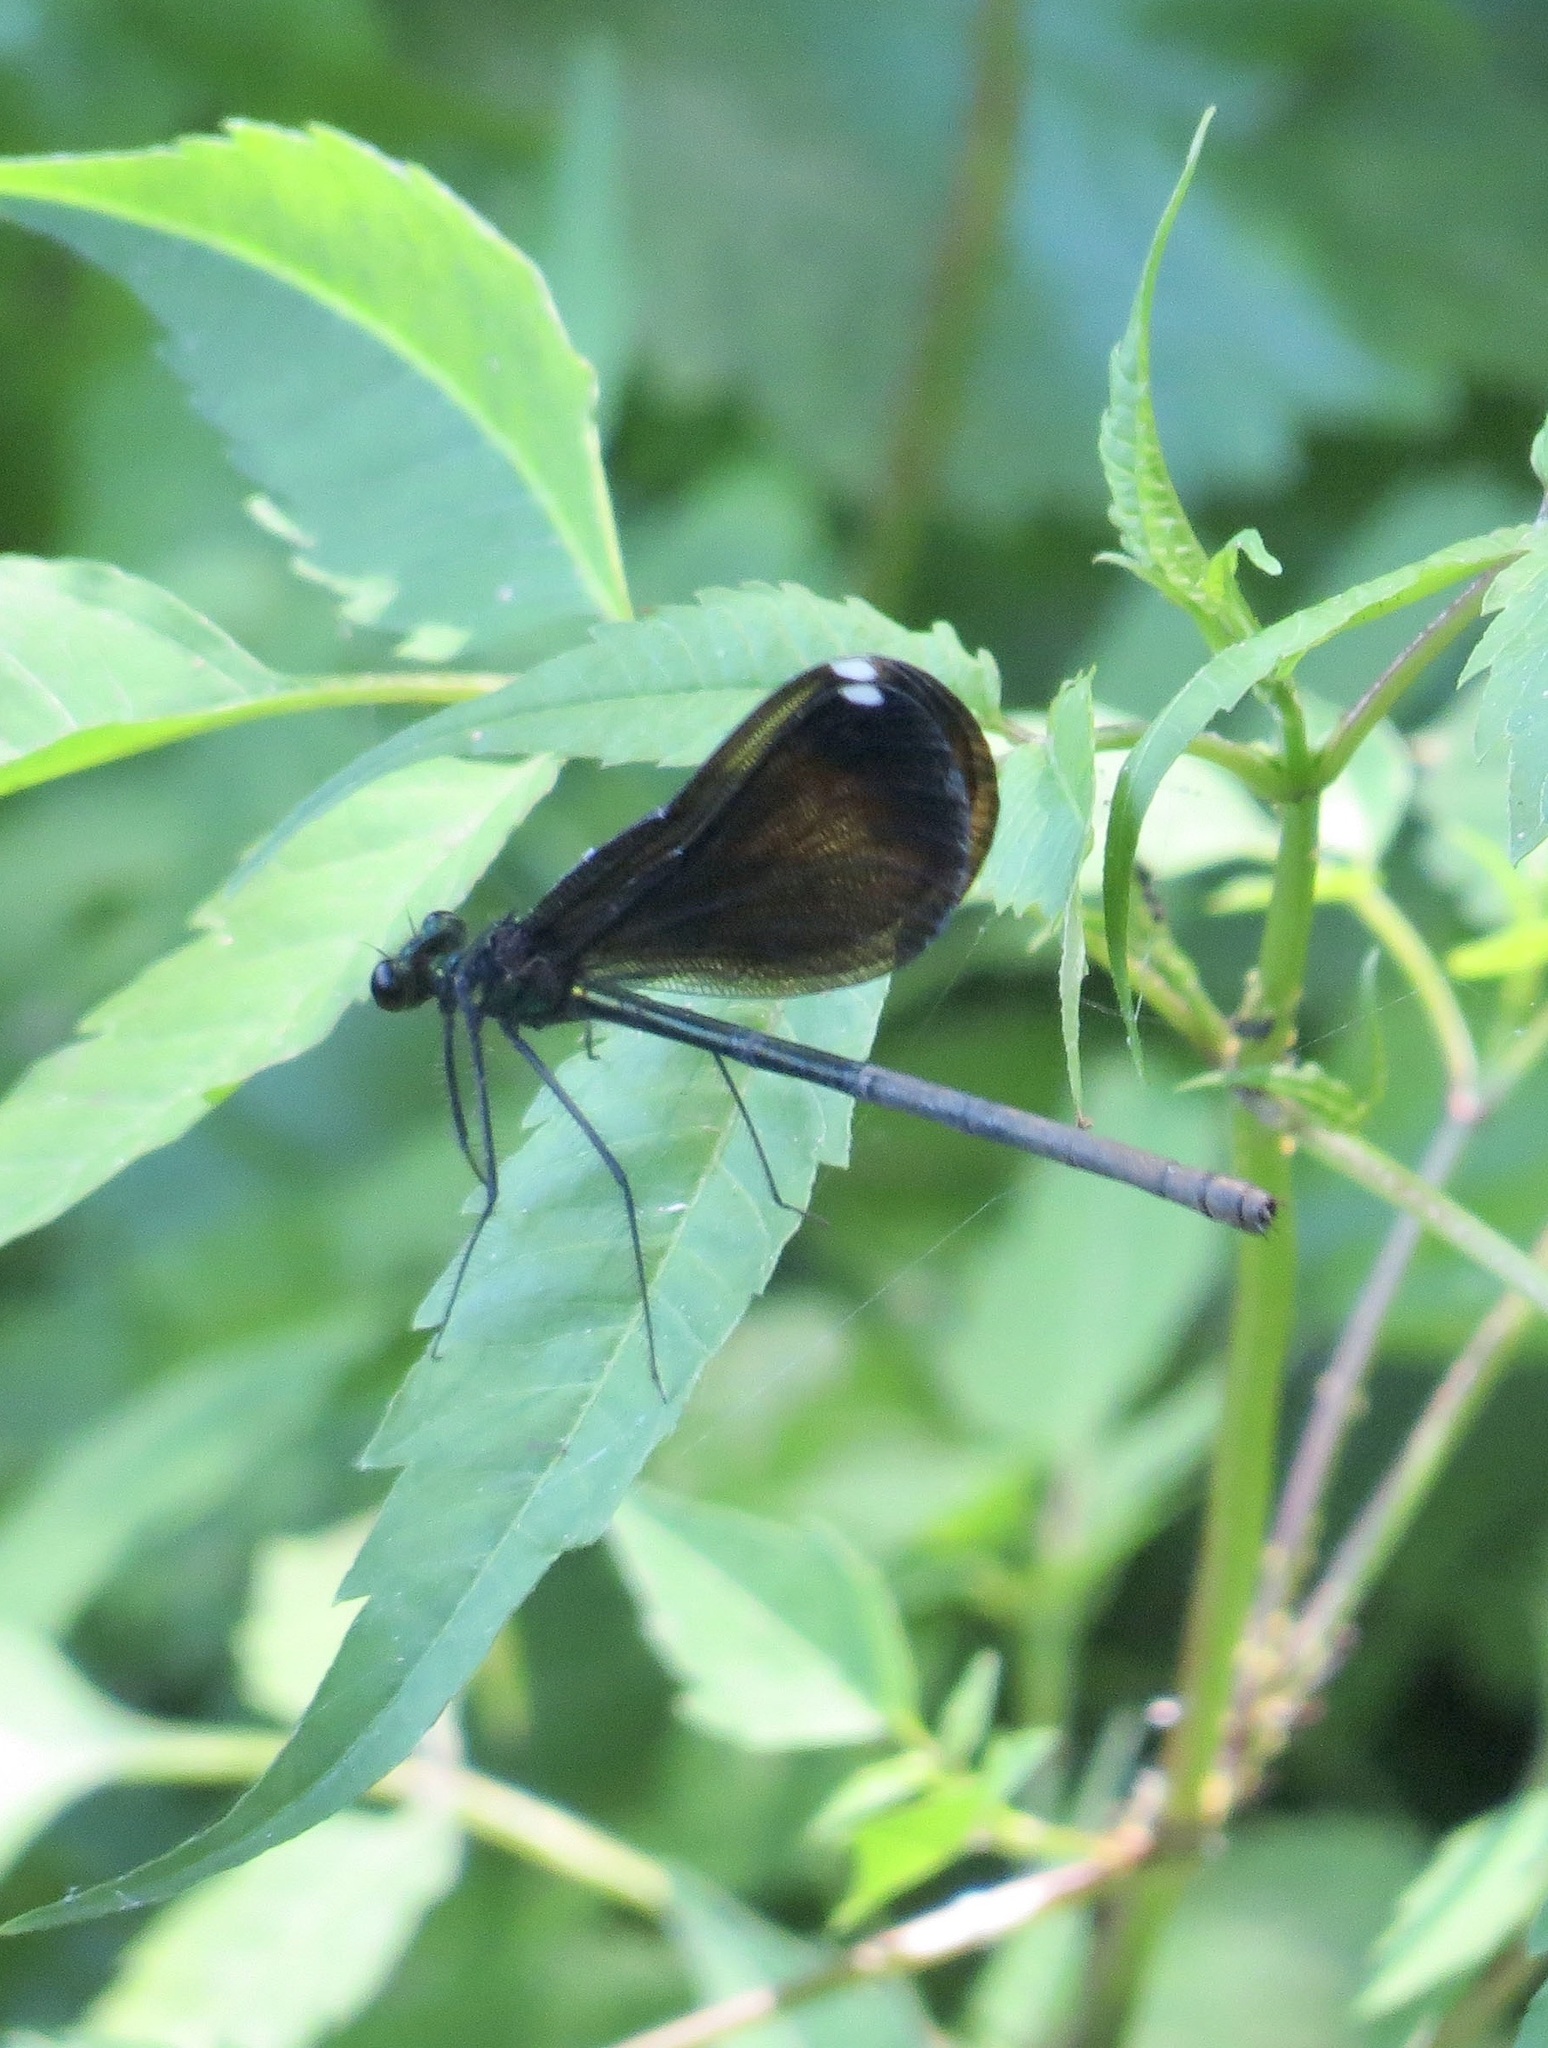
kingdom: Animalia
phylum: Arthropoda
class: Insecta
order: Odonata
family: Calopterygidae
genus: Calopteryx
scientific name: Calopteryx maculata
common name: Ebony jewelwing
